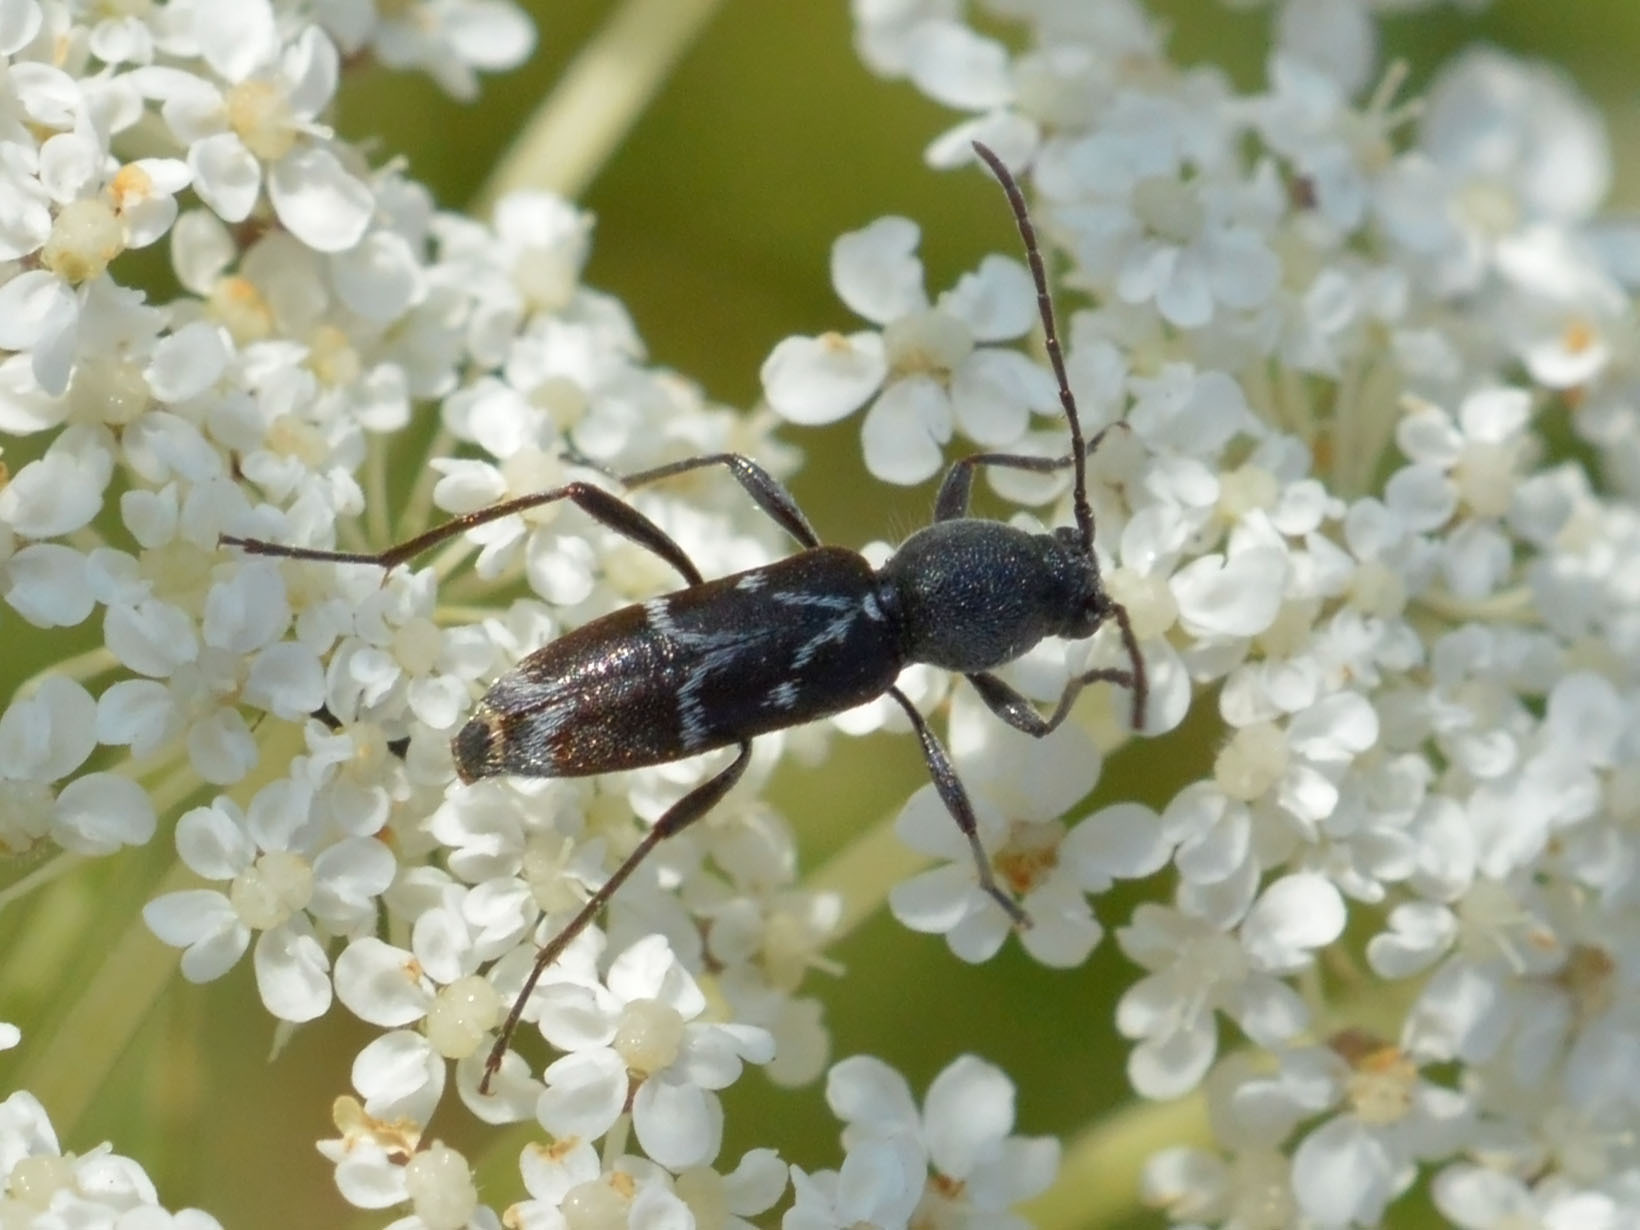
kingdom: Animalia
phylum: Arthropoda
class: Insecta
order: Coleoptera
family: Cerambycidae
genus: Chlorophorus
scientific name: Chlorophorus sartor
